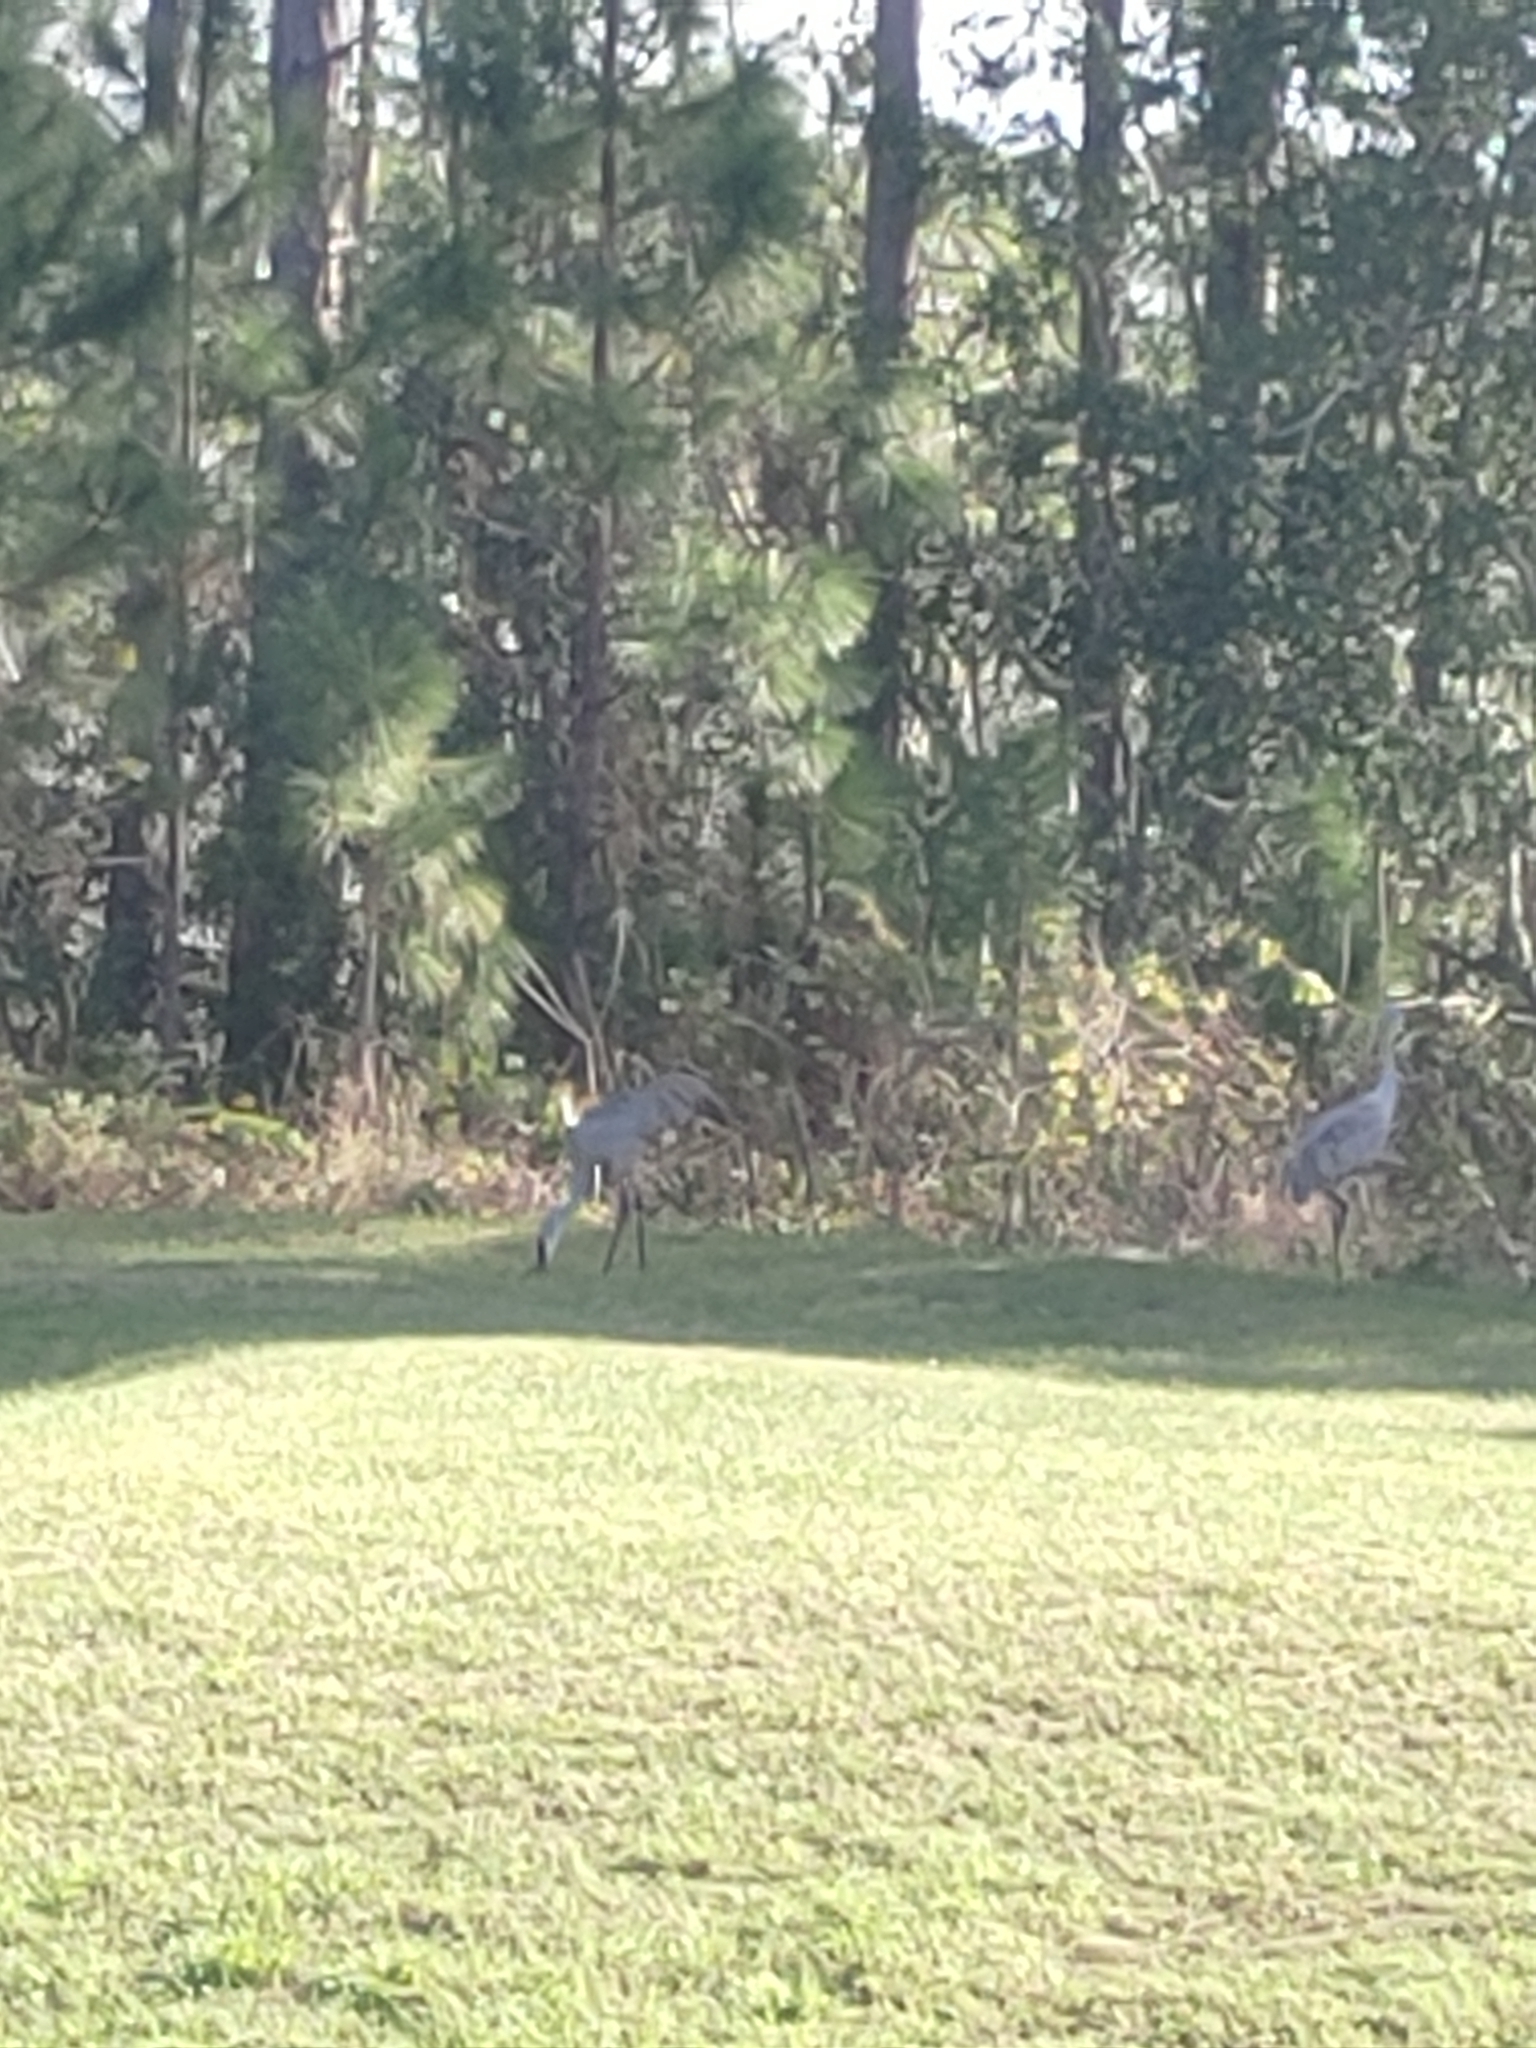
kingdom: Animalia
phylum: Chordata
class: Aves
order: Gruiformes
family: Gruidae
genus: Grus
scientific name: Grus canadensis
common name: Sandhill crane
